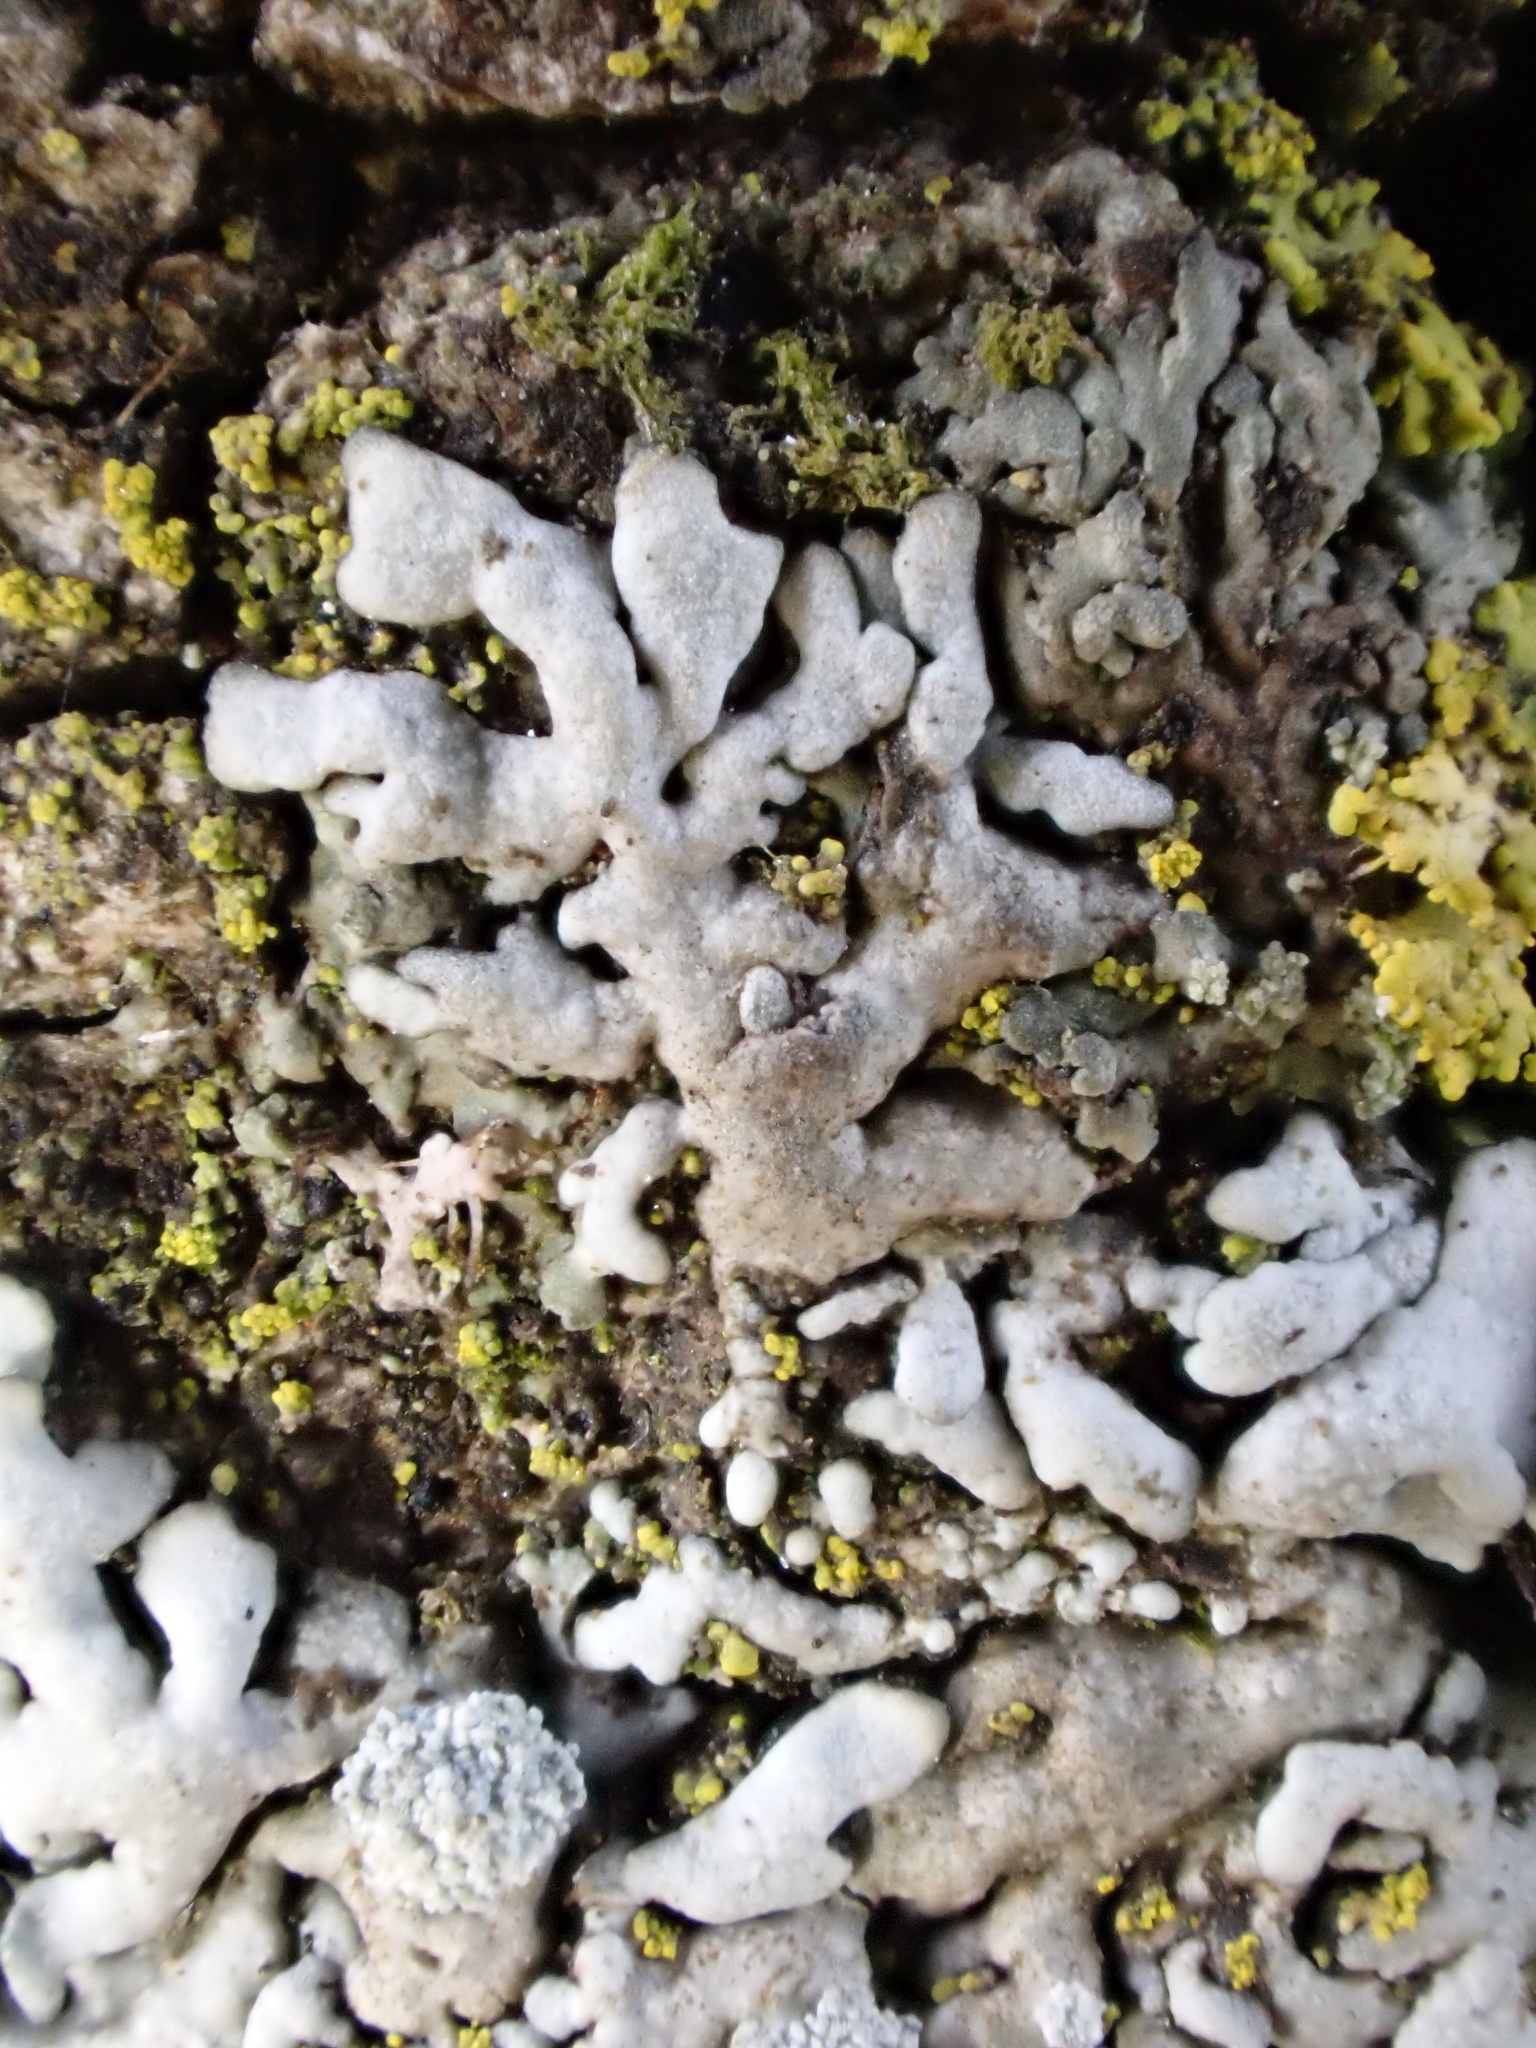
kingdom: Fungi
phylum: Ascomycota
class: Lecanoromycetes
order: Caliciales
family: Physciaceae
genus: Physcia
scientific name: Physcia caesia
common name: Blue-gray rosette lichen
